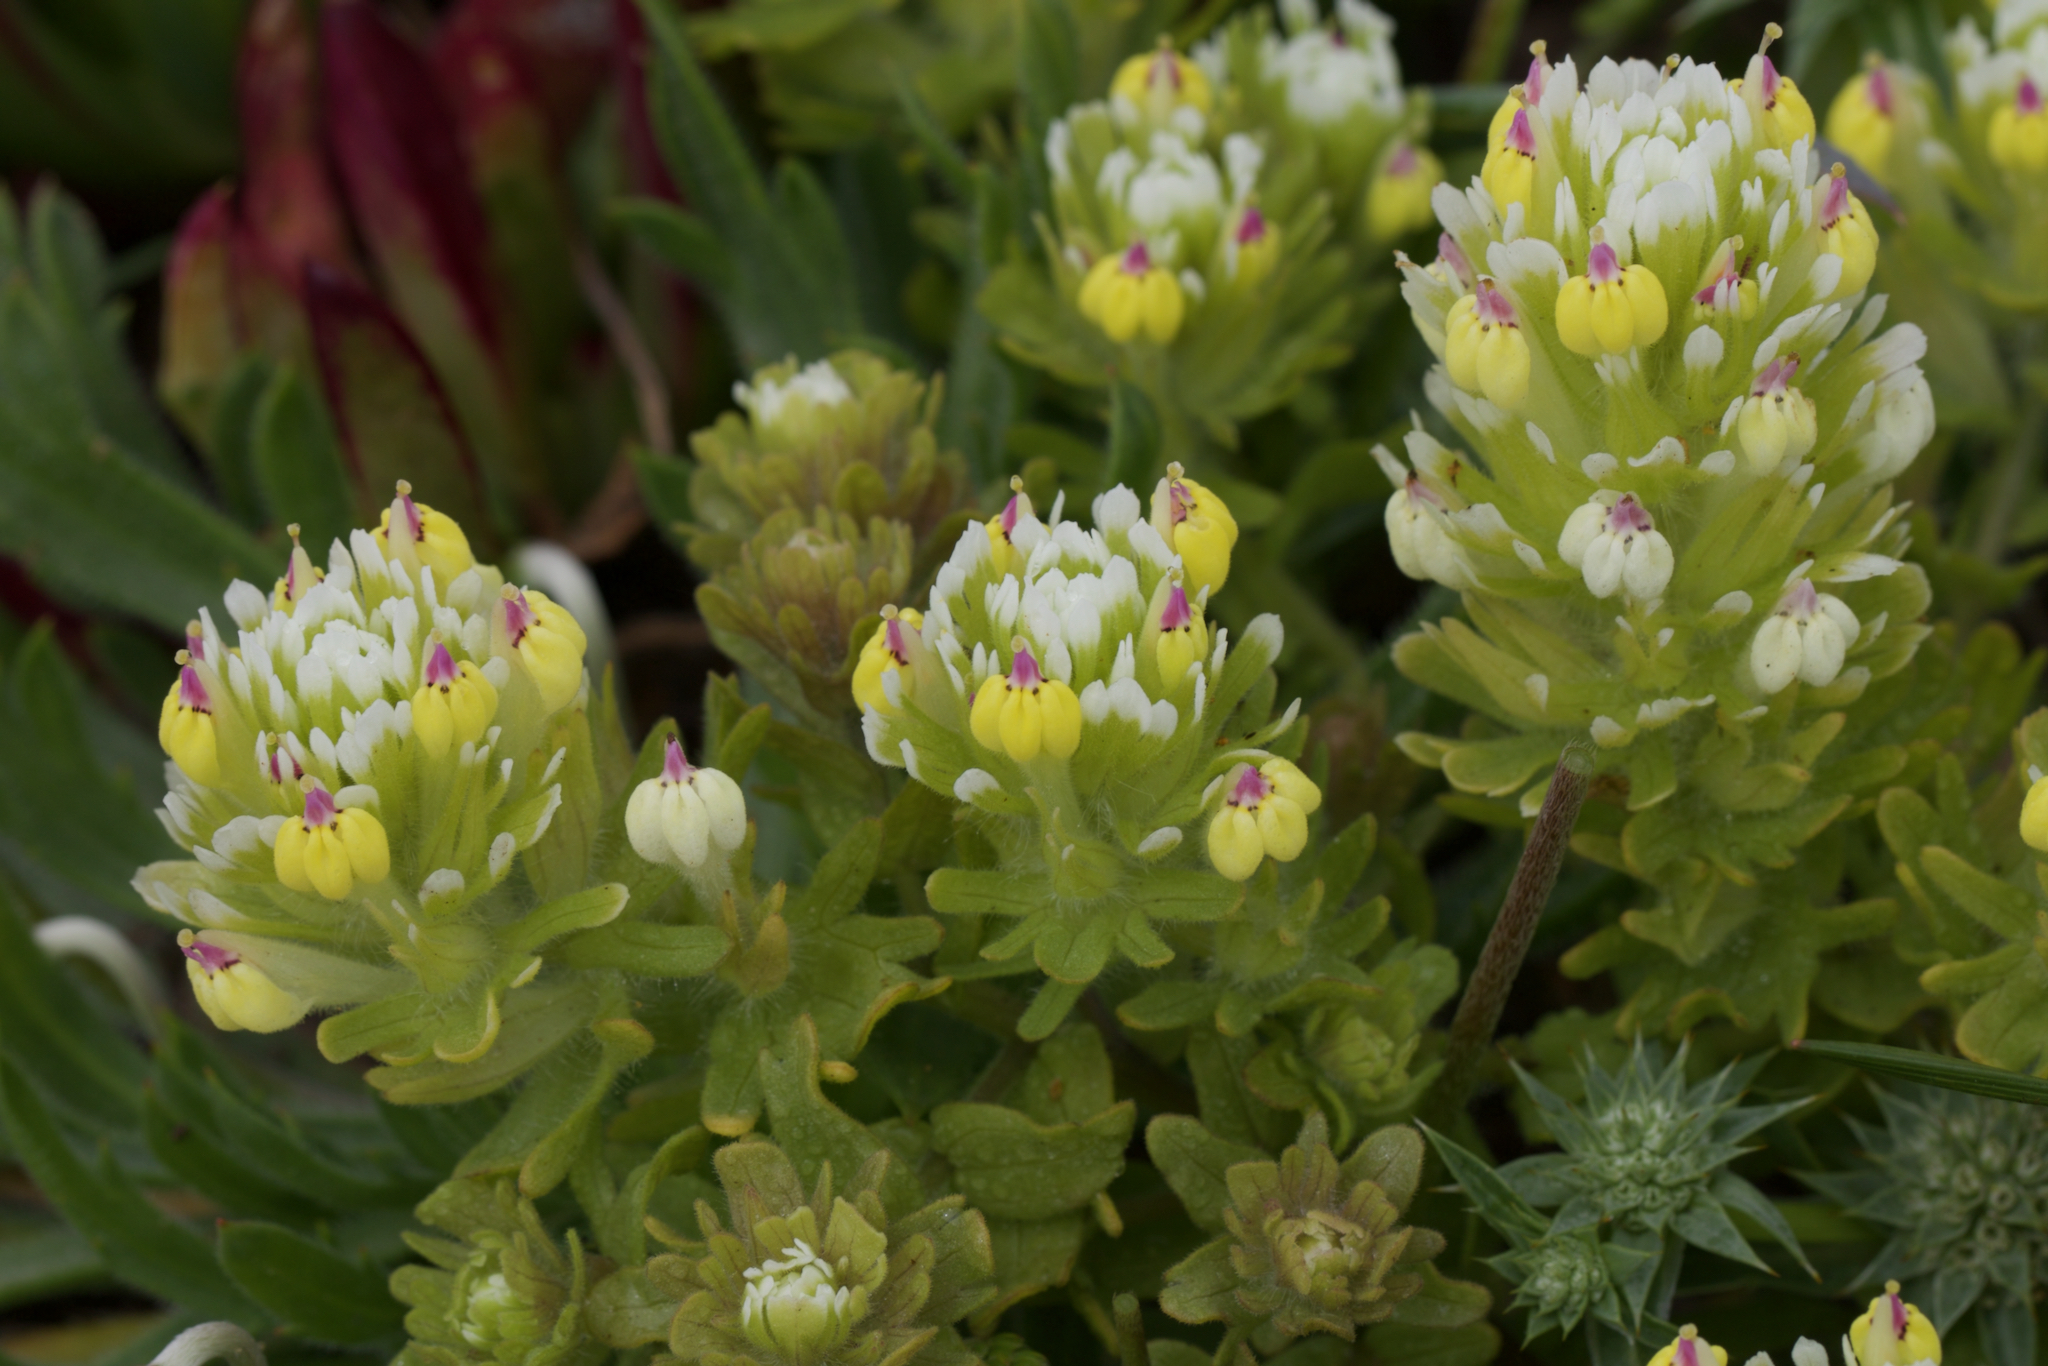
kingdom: Plantae
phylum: Tracheophyta
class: Magnoliopsida
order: Lamiales
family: Orobanchaceae
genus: Castilleja
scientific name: Castilleja ambigua
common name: Johnny-nip
